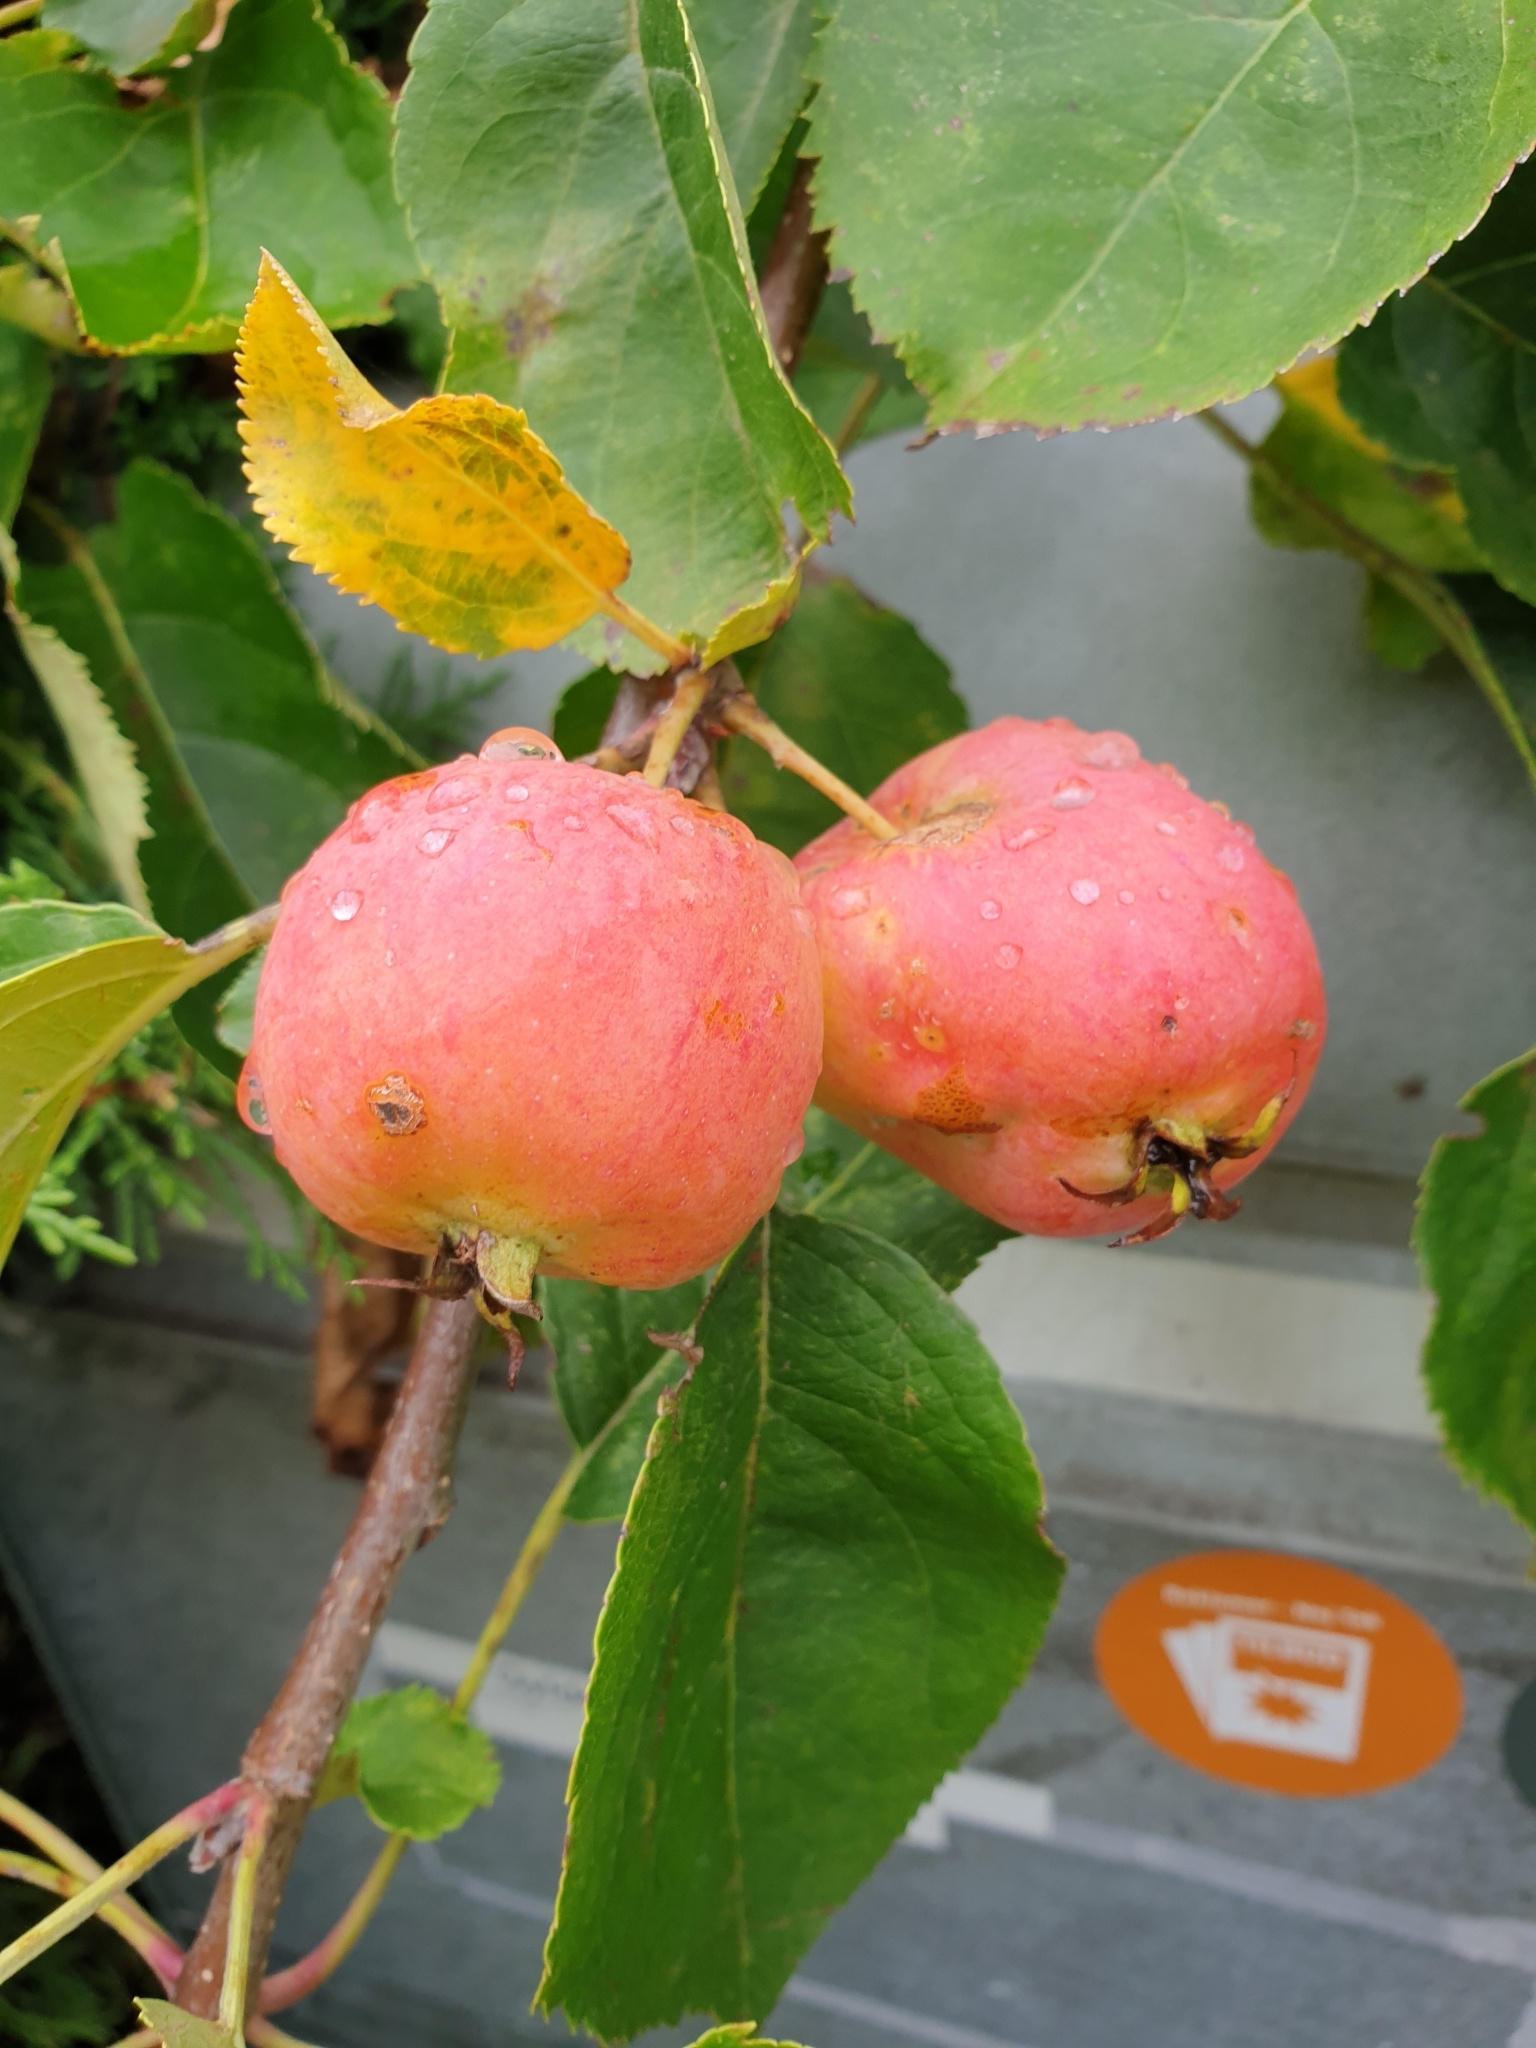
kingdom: Plantae
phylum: Tracheophyta
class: Magnoliopsida
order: Rosales
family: Rosaceae
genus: Malus
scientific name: Malus domestica
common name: Apple
